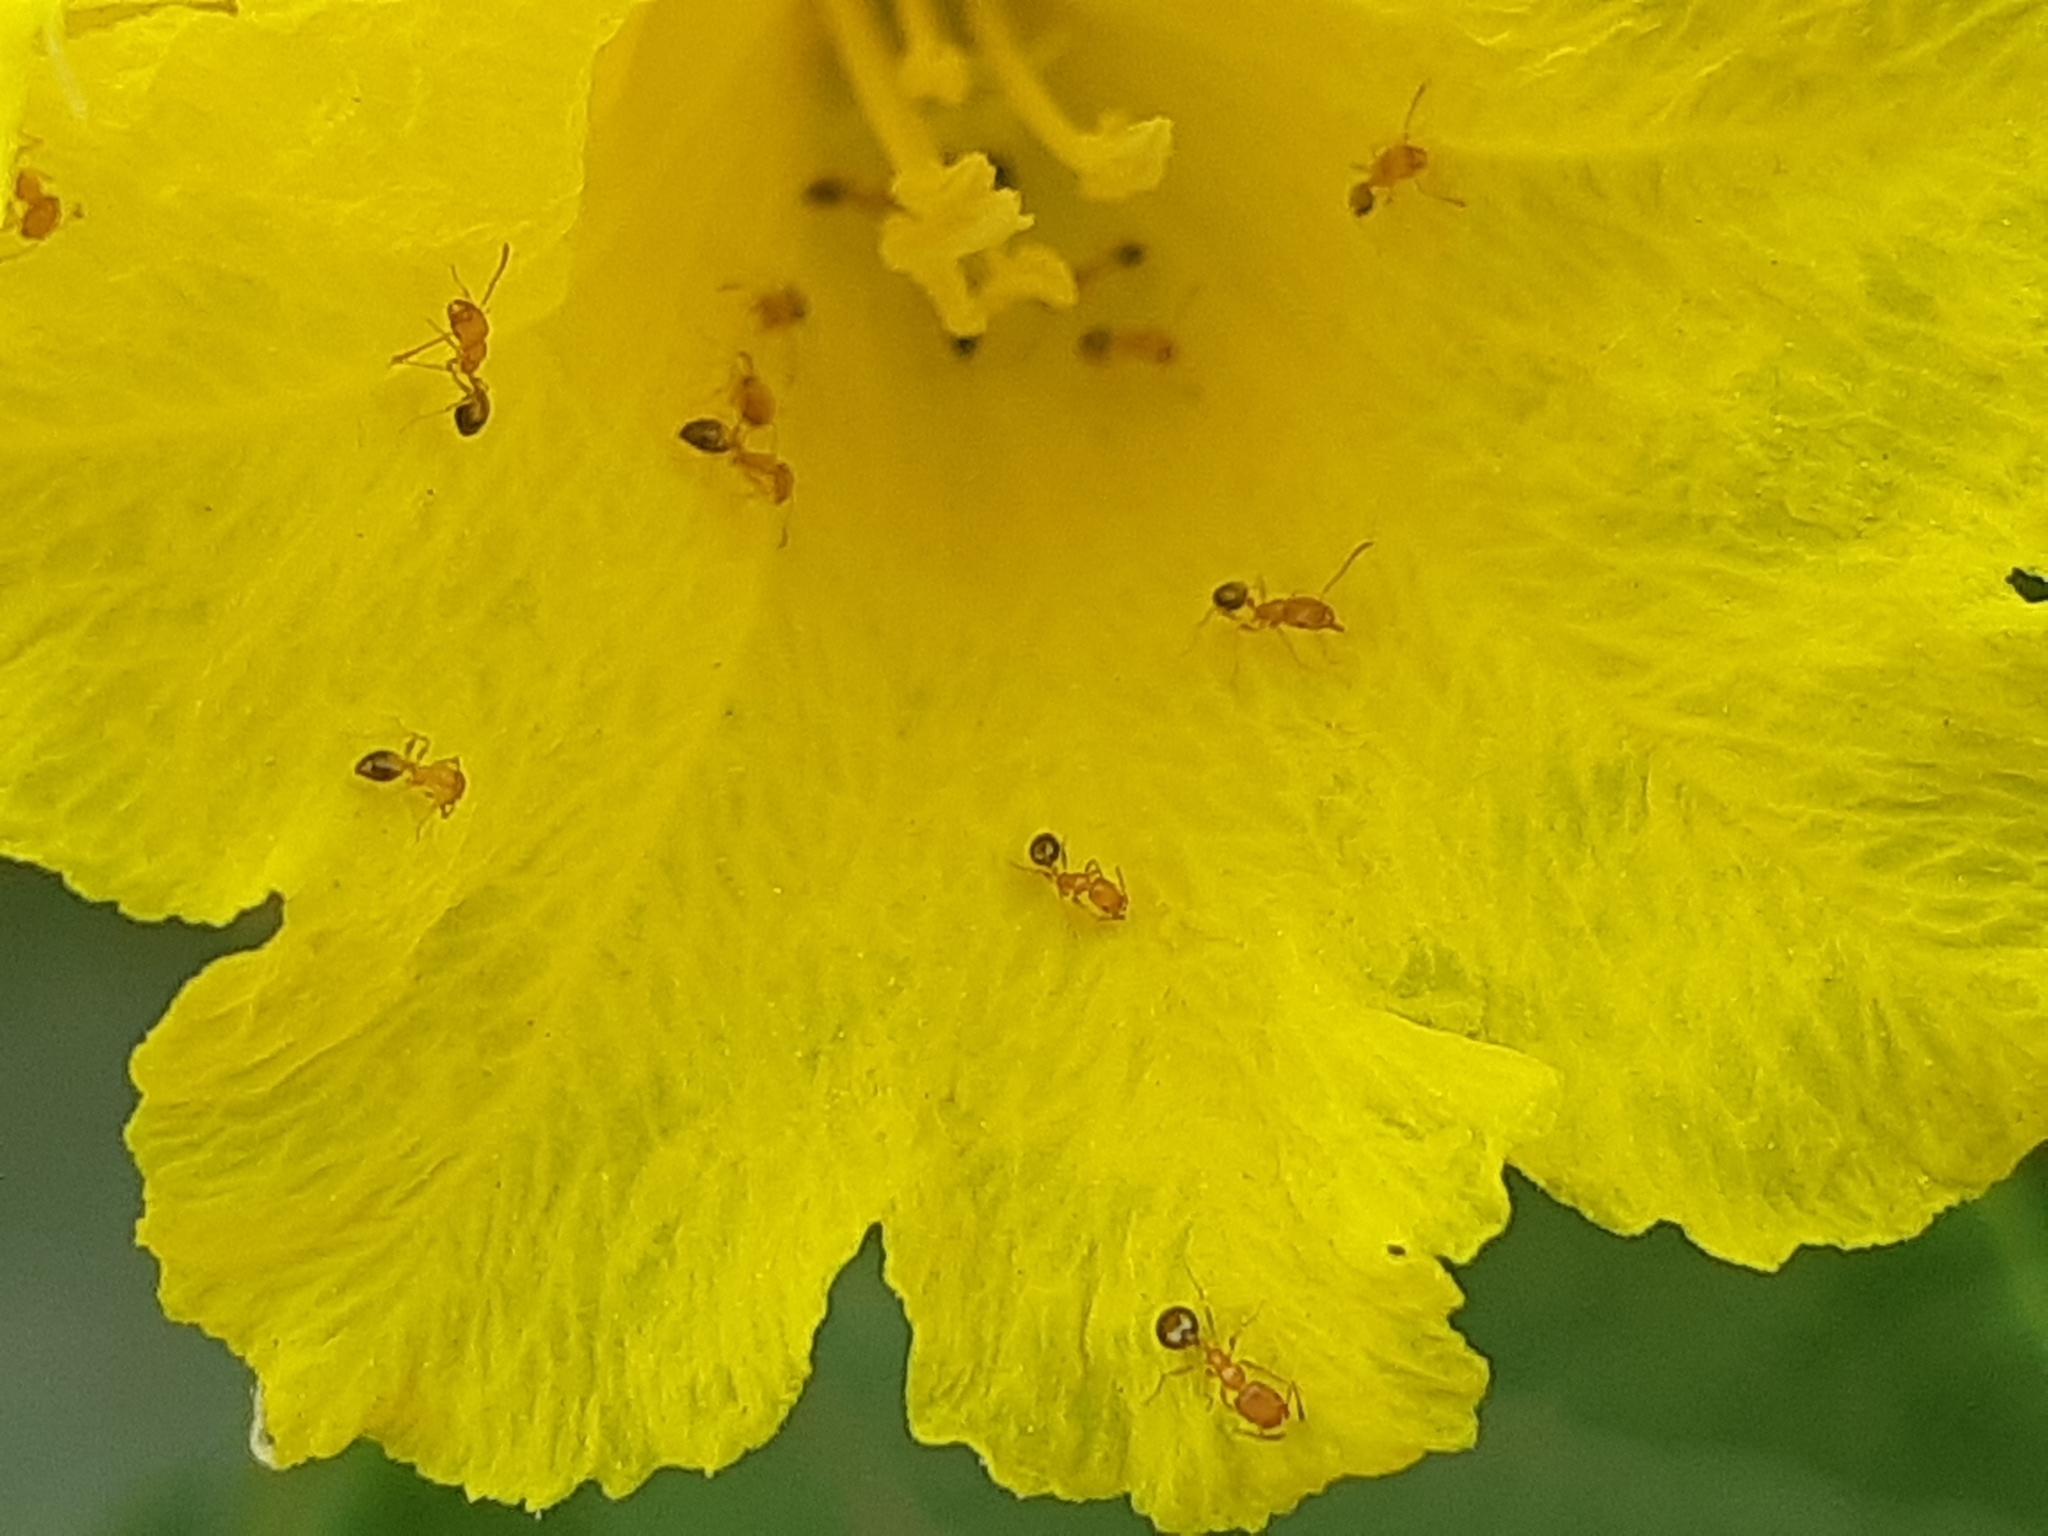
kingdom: Animalia
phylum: Arthropoda
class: Insecta
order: Hymenoptera
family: Formicidae
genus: Monomorium
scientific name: Monomorium pharaonis
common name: Pharaoh ant
